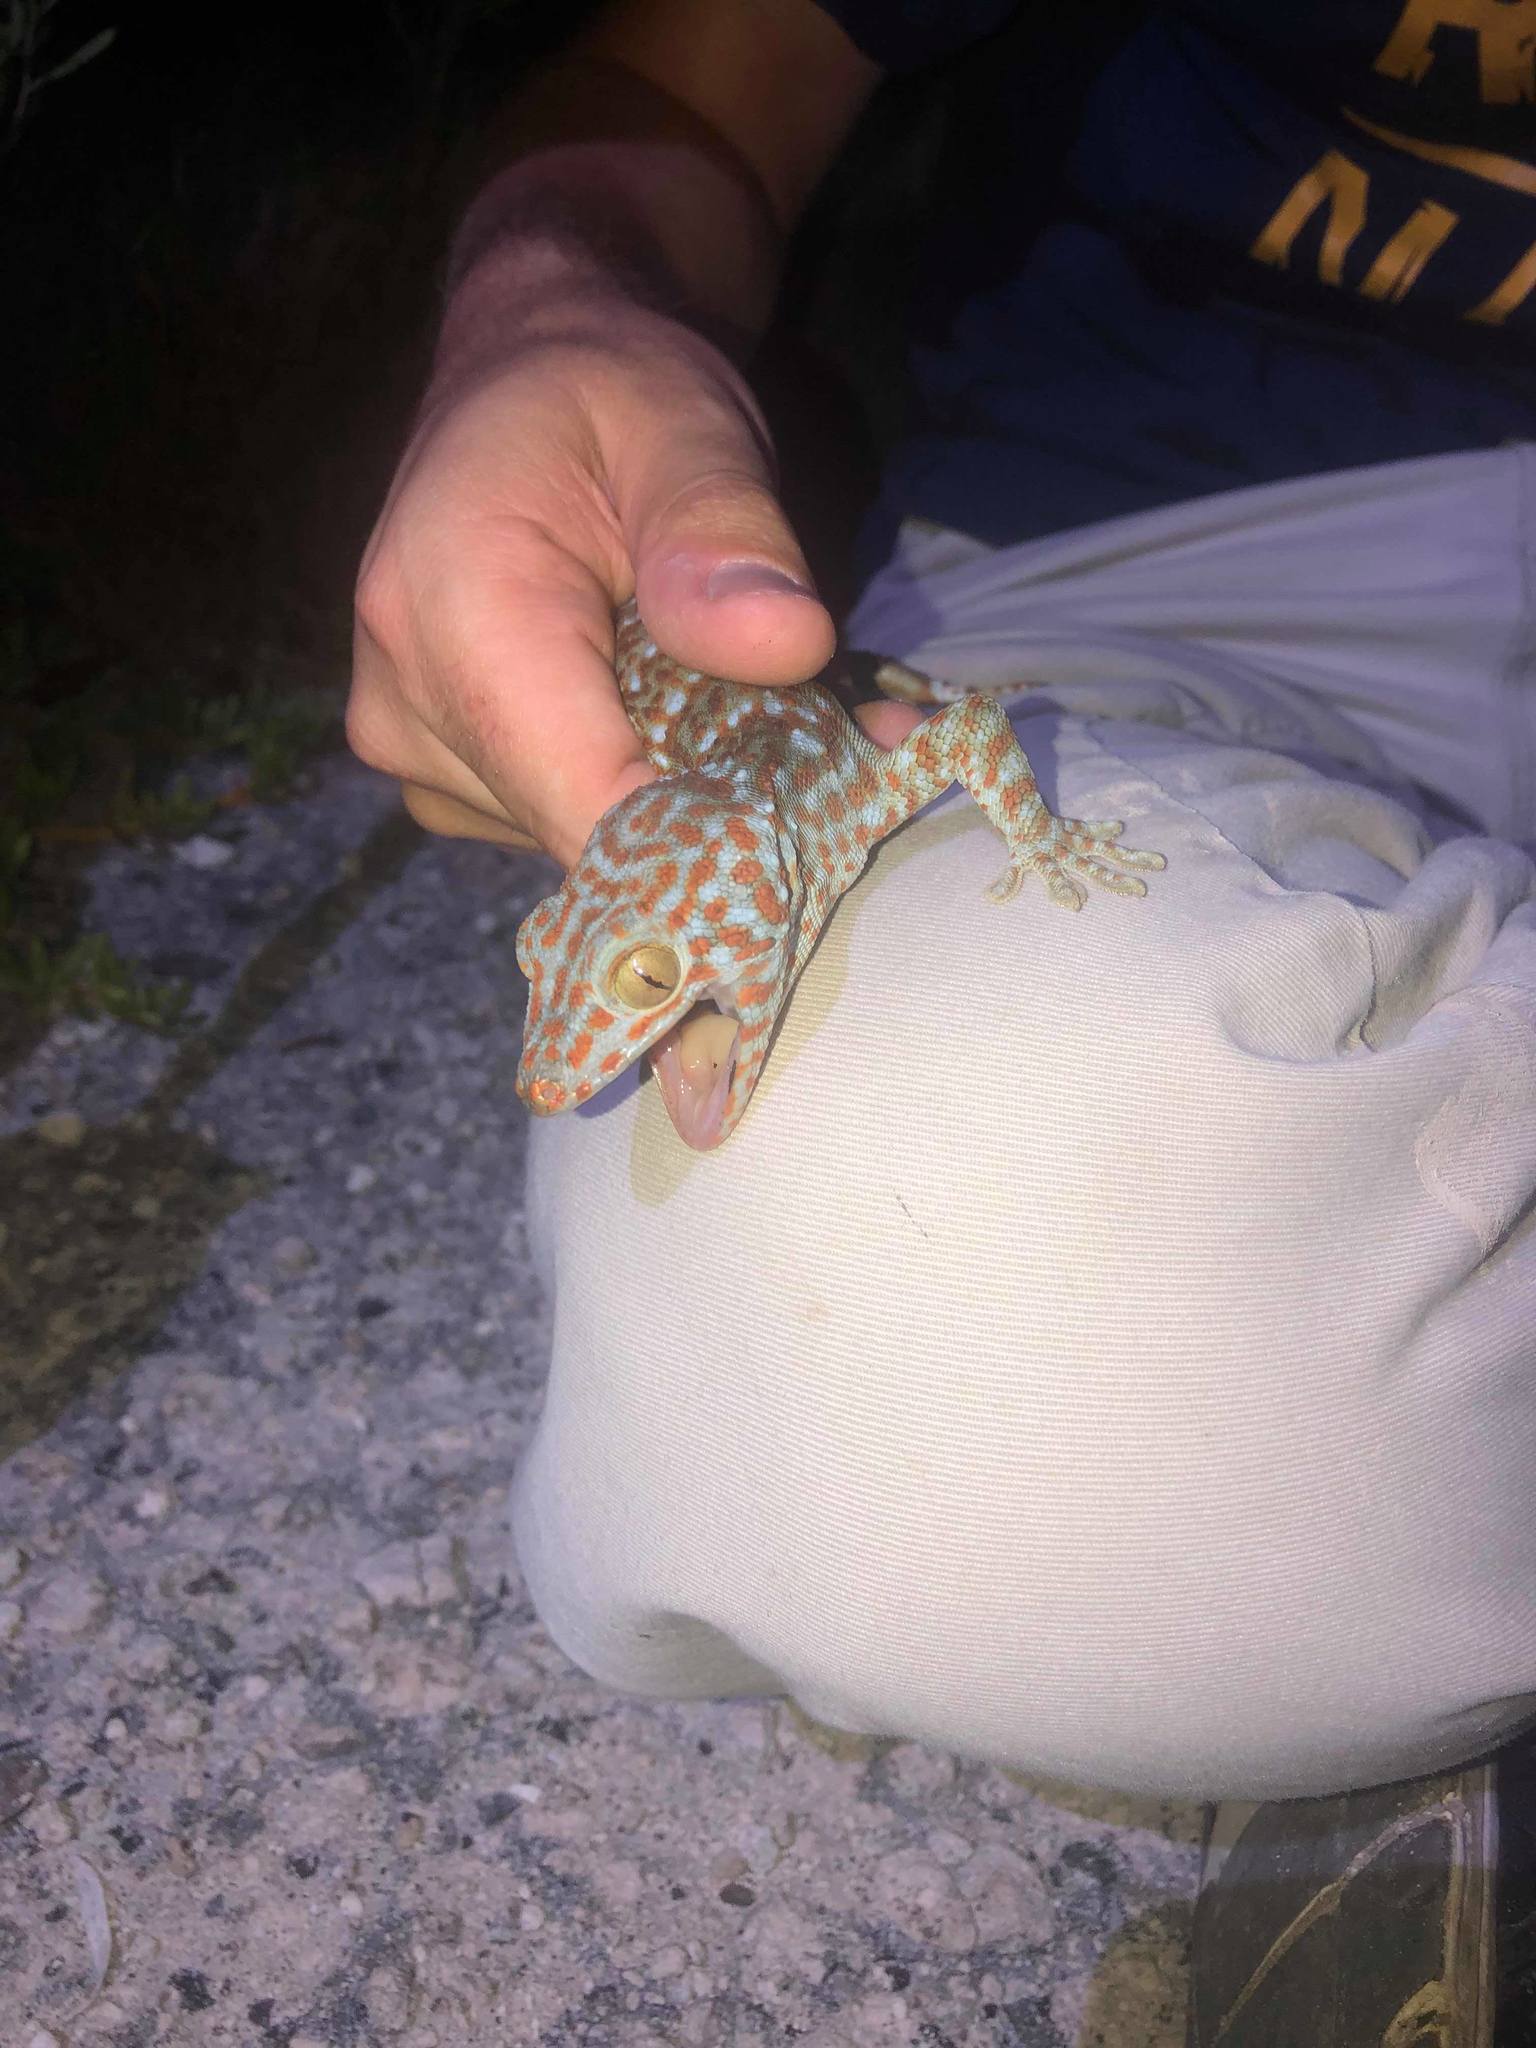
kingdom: Animalia
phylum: Chordata
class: Squamata
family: Gekkonidae
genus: Gekko
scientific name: Gekko gecko
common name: Tokay gecko
